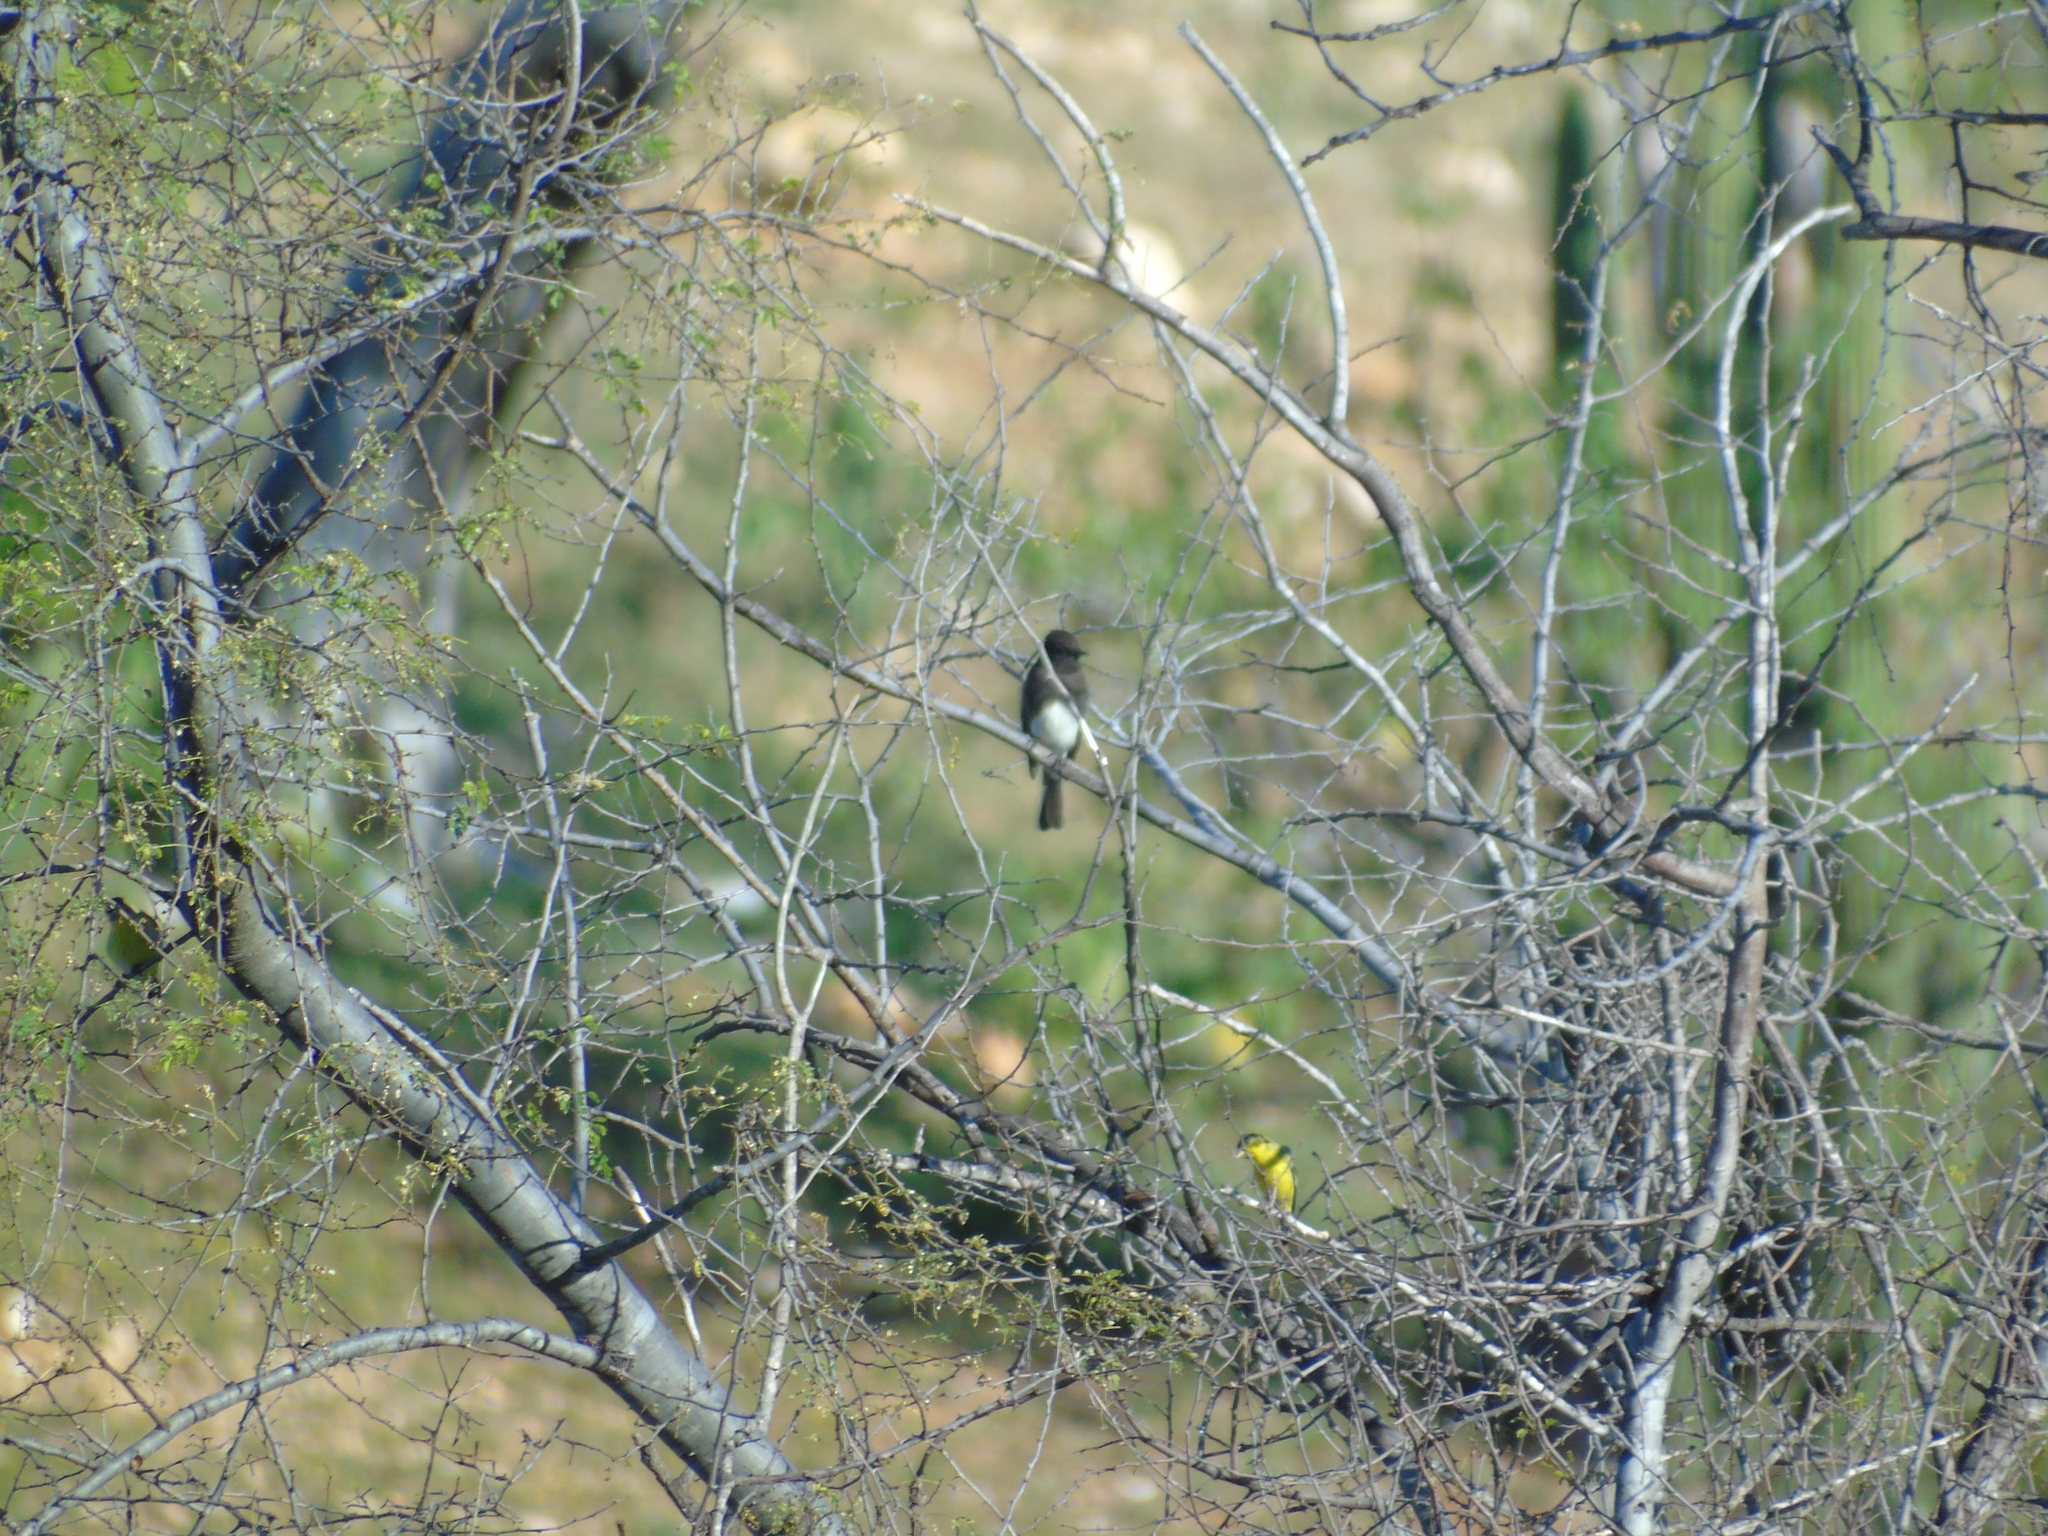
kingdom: Animalia
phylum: Chordata
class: Aves
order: Passeriformes
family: Tyrannidae
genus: Sayornis
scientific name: Sayornis nigricans
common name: Black phoebe
